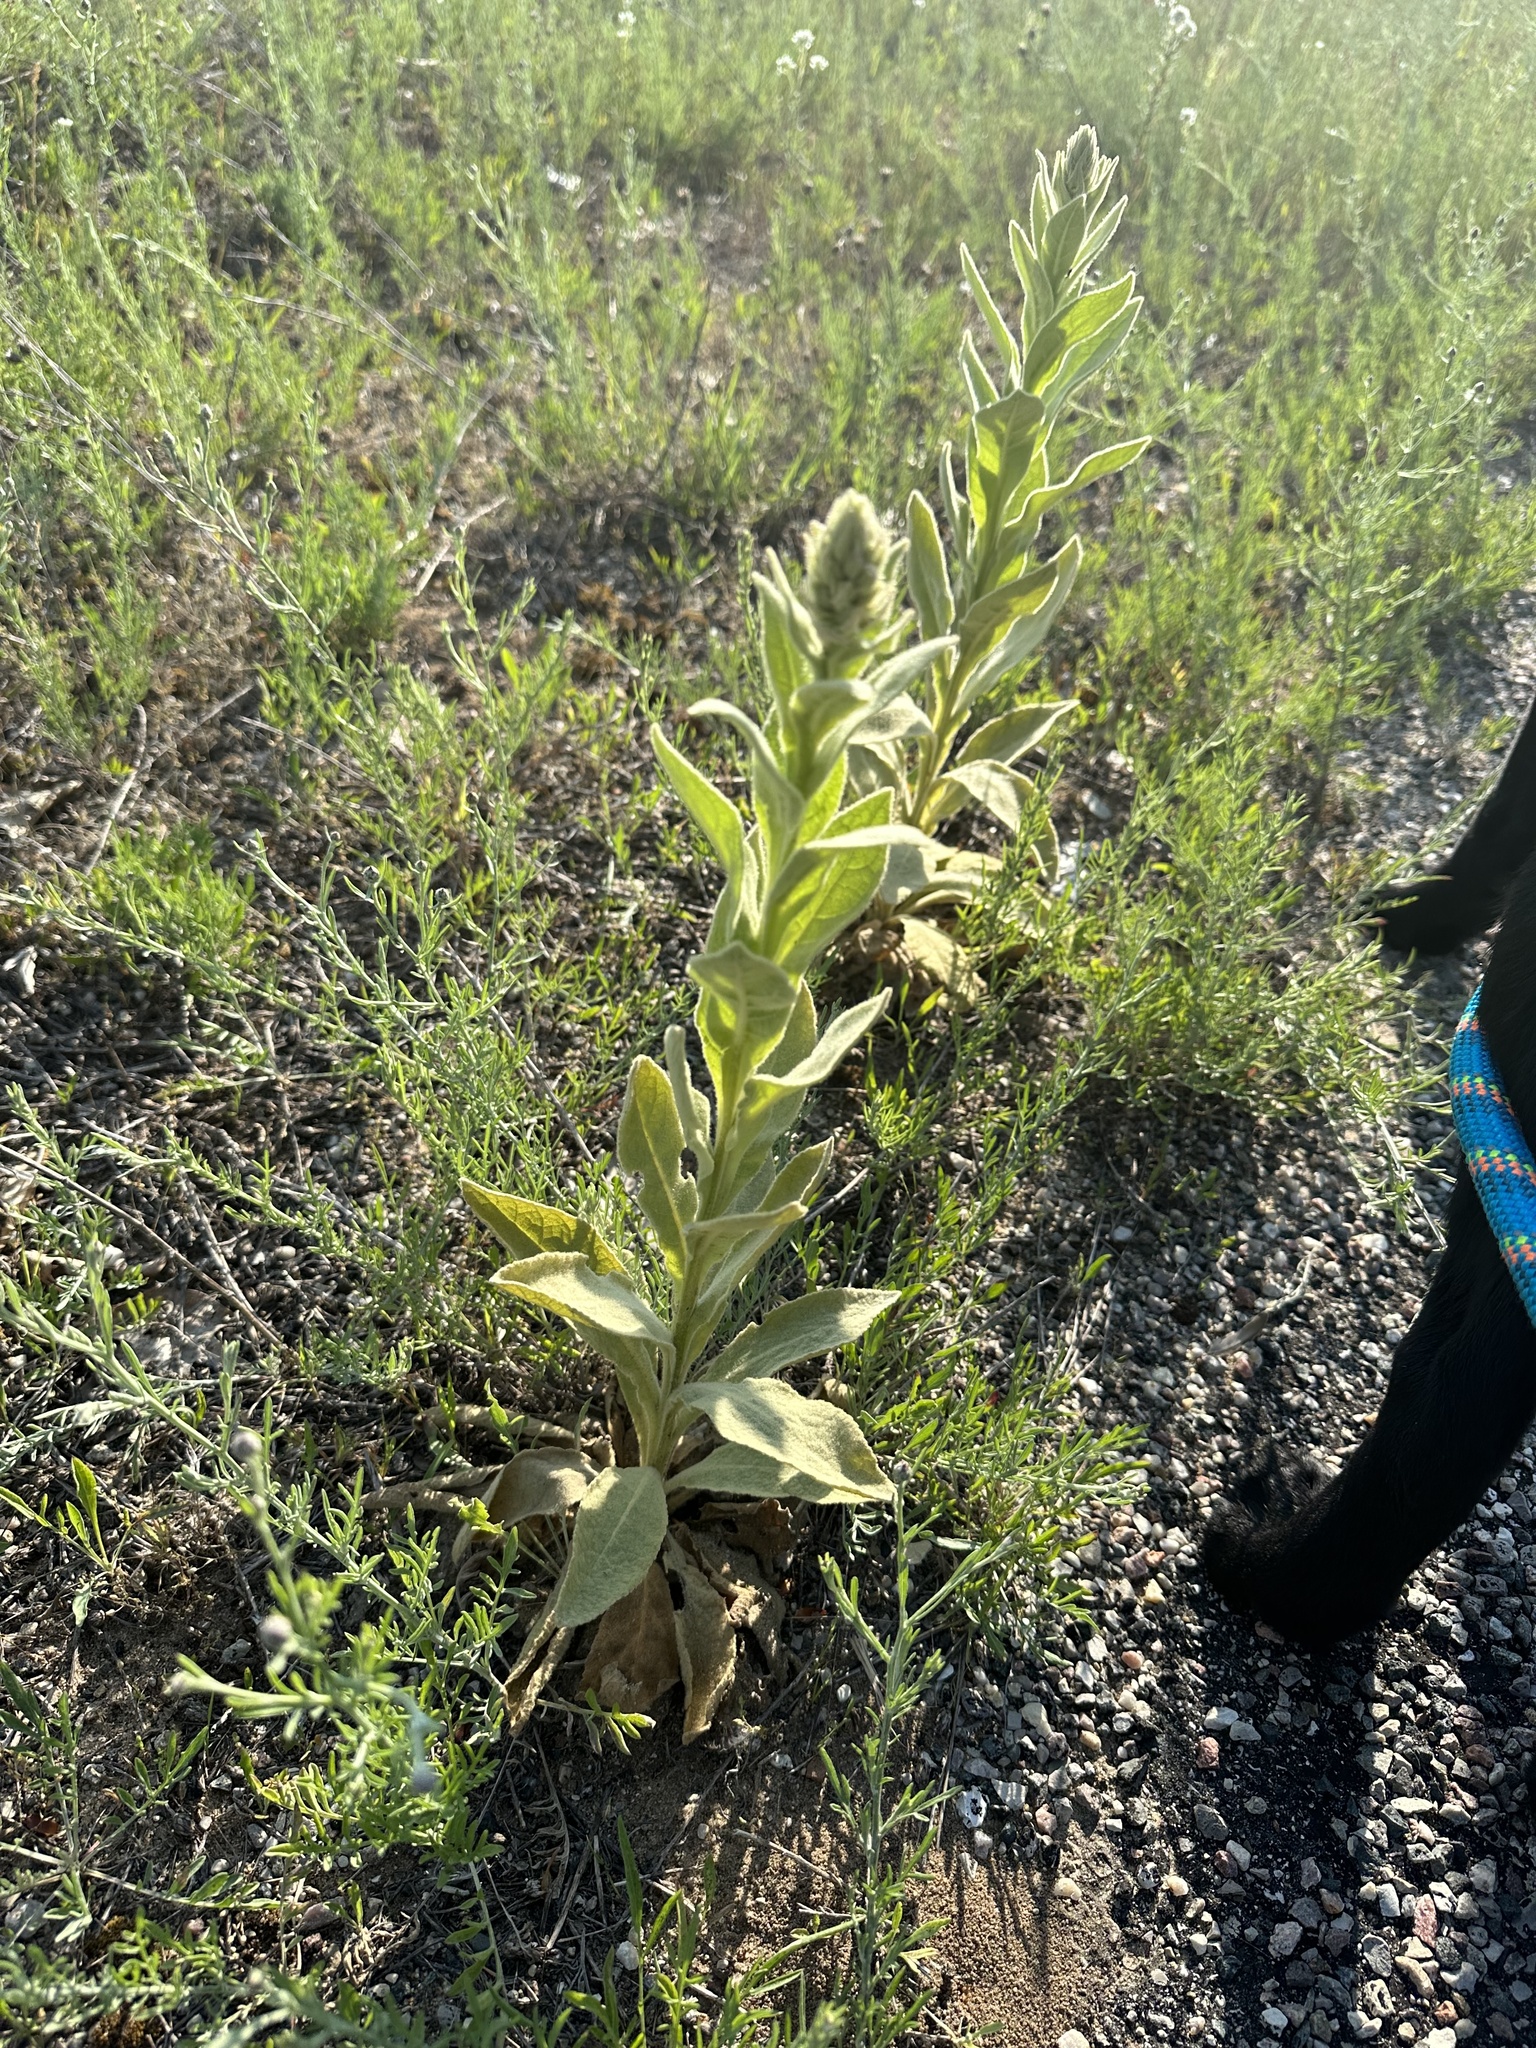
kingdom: Plantae
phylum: Tracheophyta
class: Magnoliopsida
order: Lamiales
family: Scrophulariaceae
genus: Verbascum
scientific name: Verbascum thapsus
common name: Common mullein
